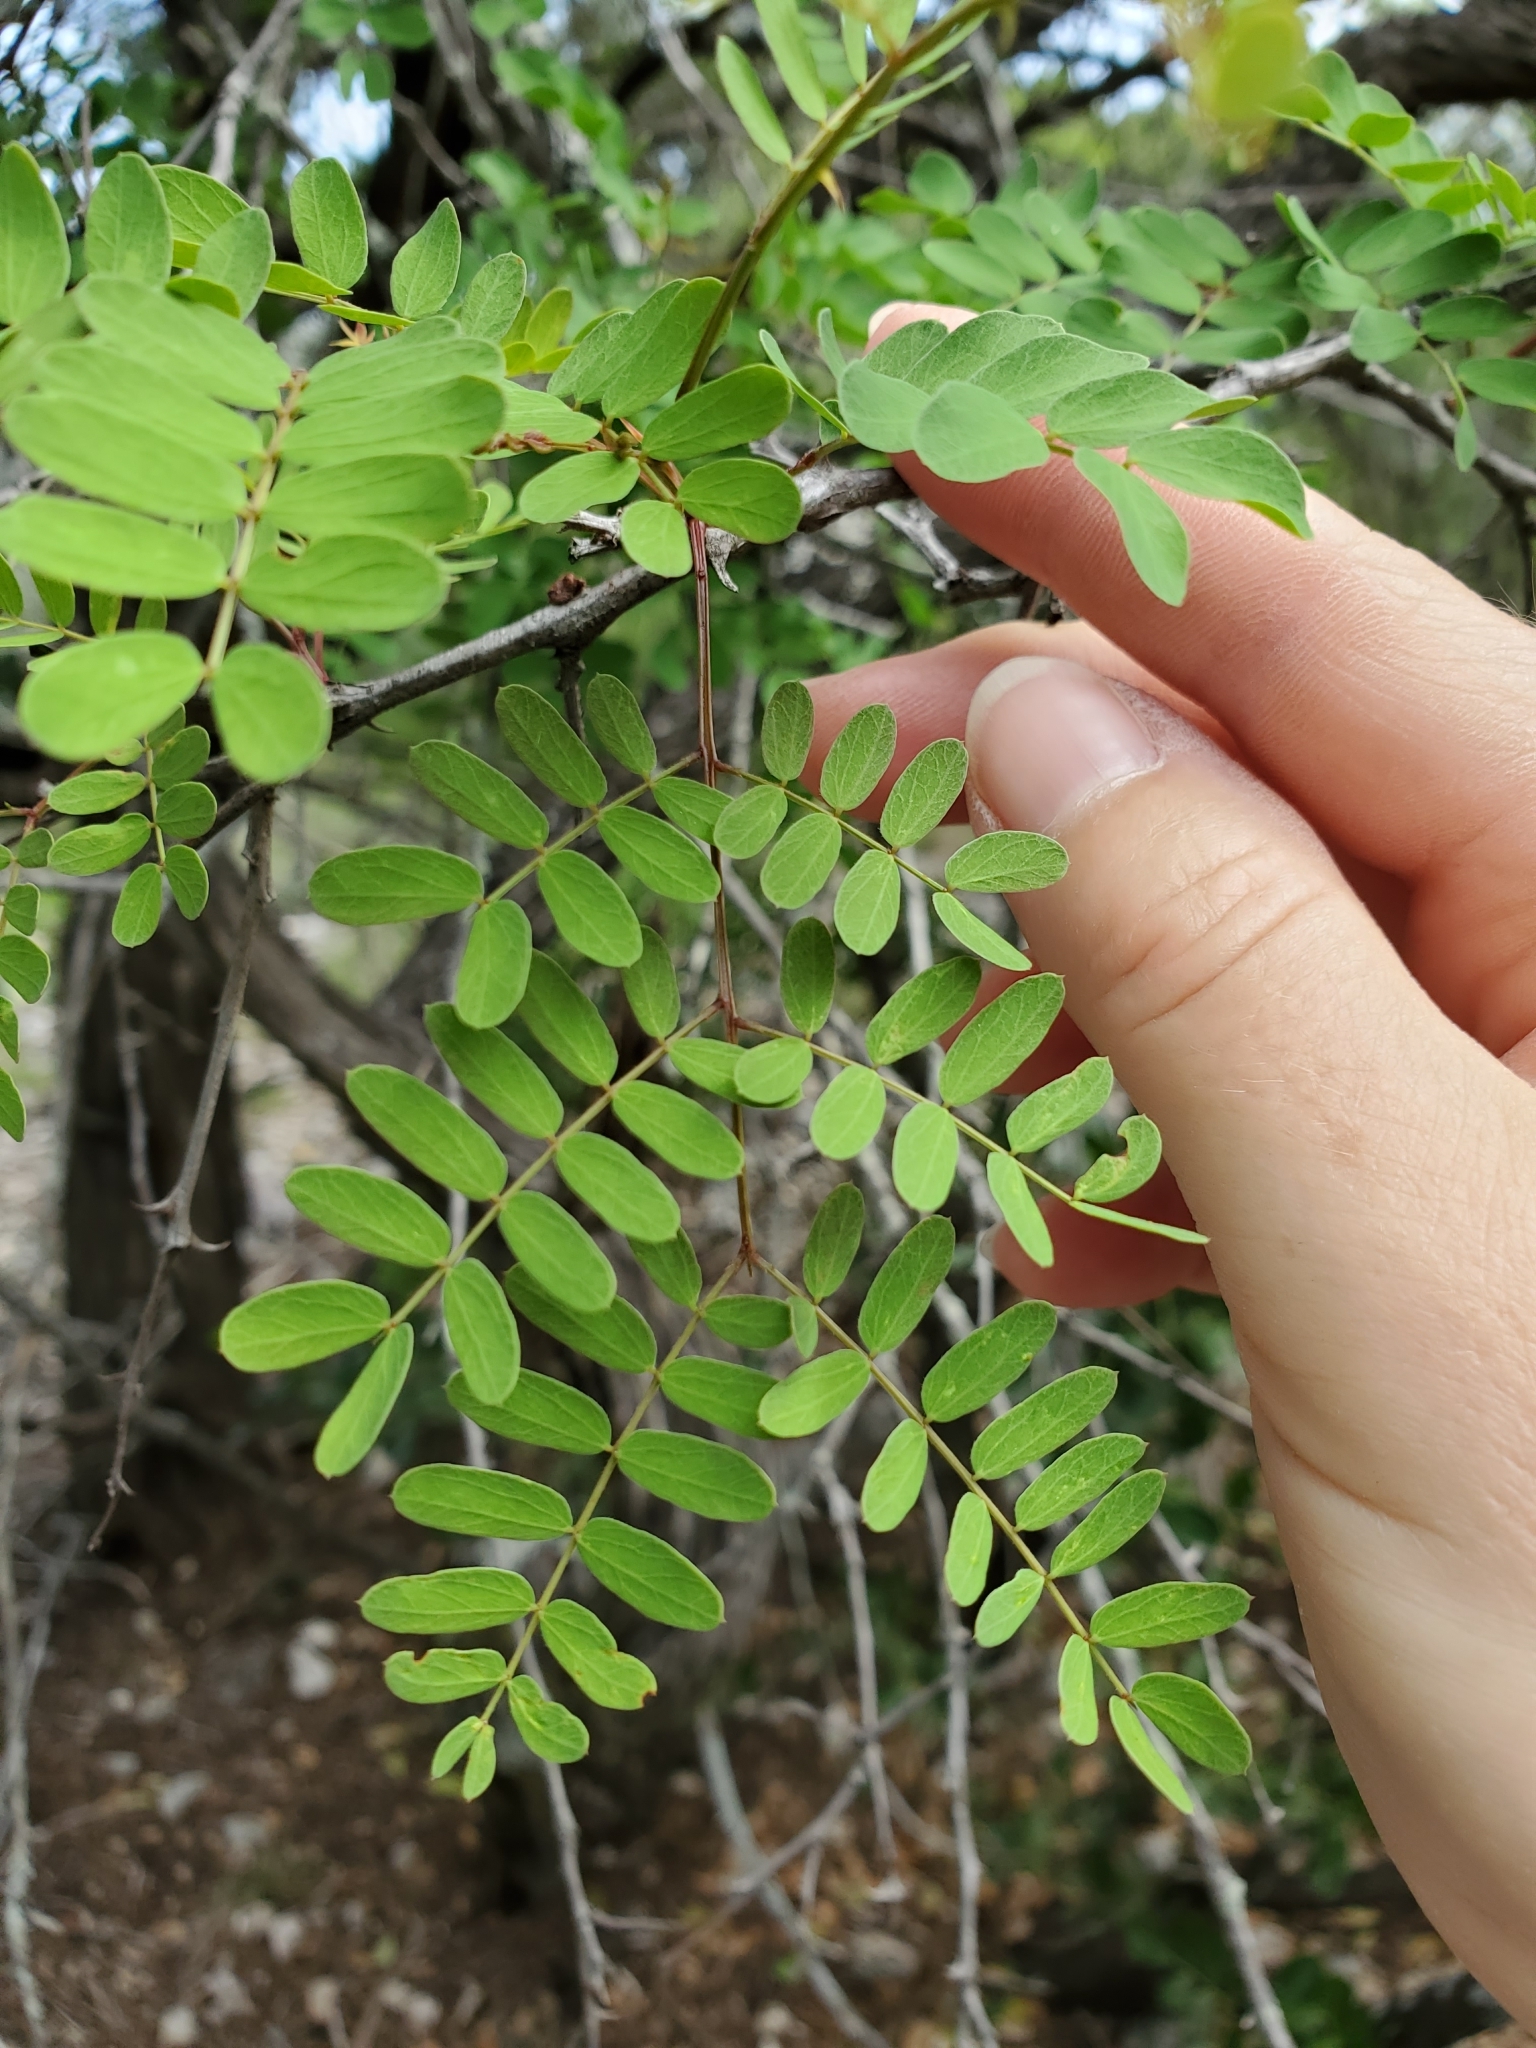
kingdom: Plantae
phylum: Tracheophyta
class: Magnoliopsida
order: Fabales
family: Fabaceae
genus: Senegalia
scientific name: Senegalia roemeriana
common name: Roemer's acacia
